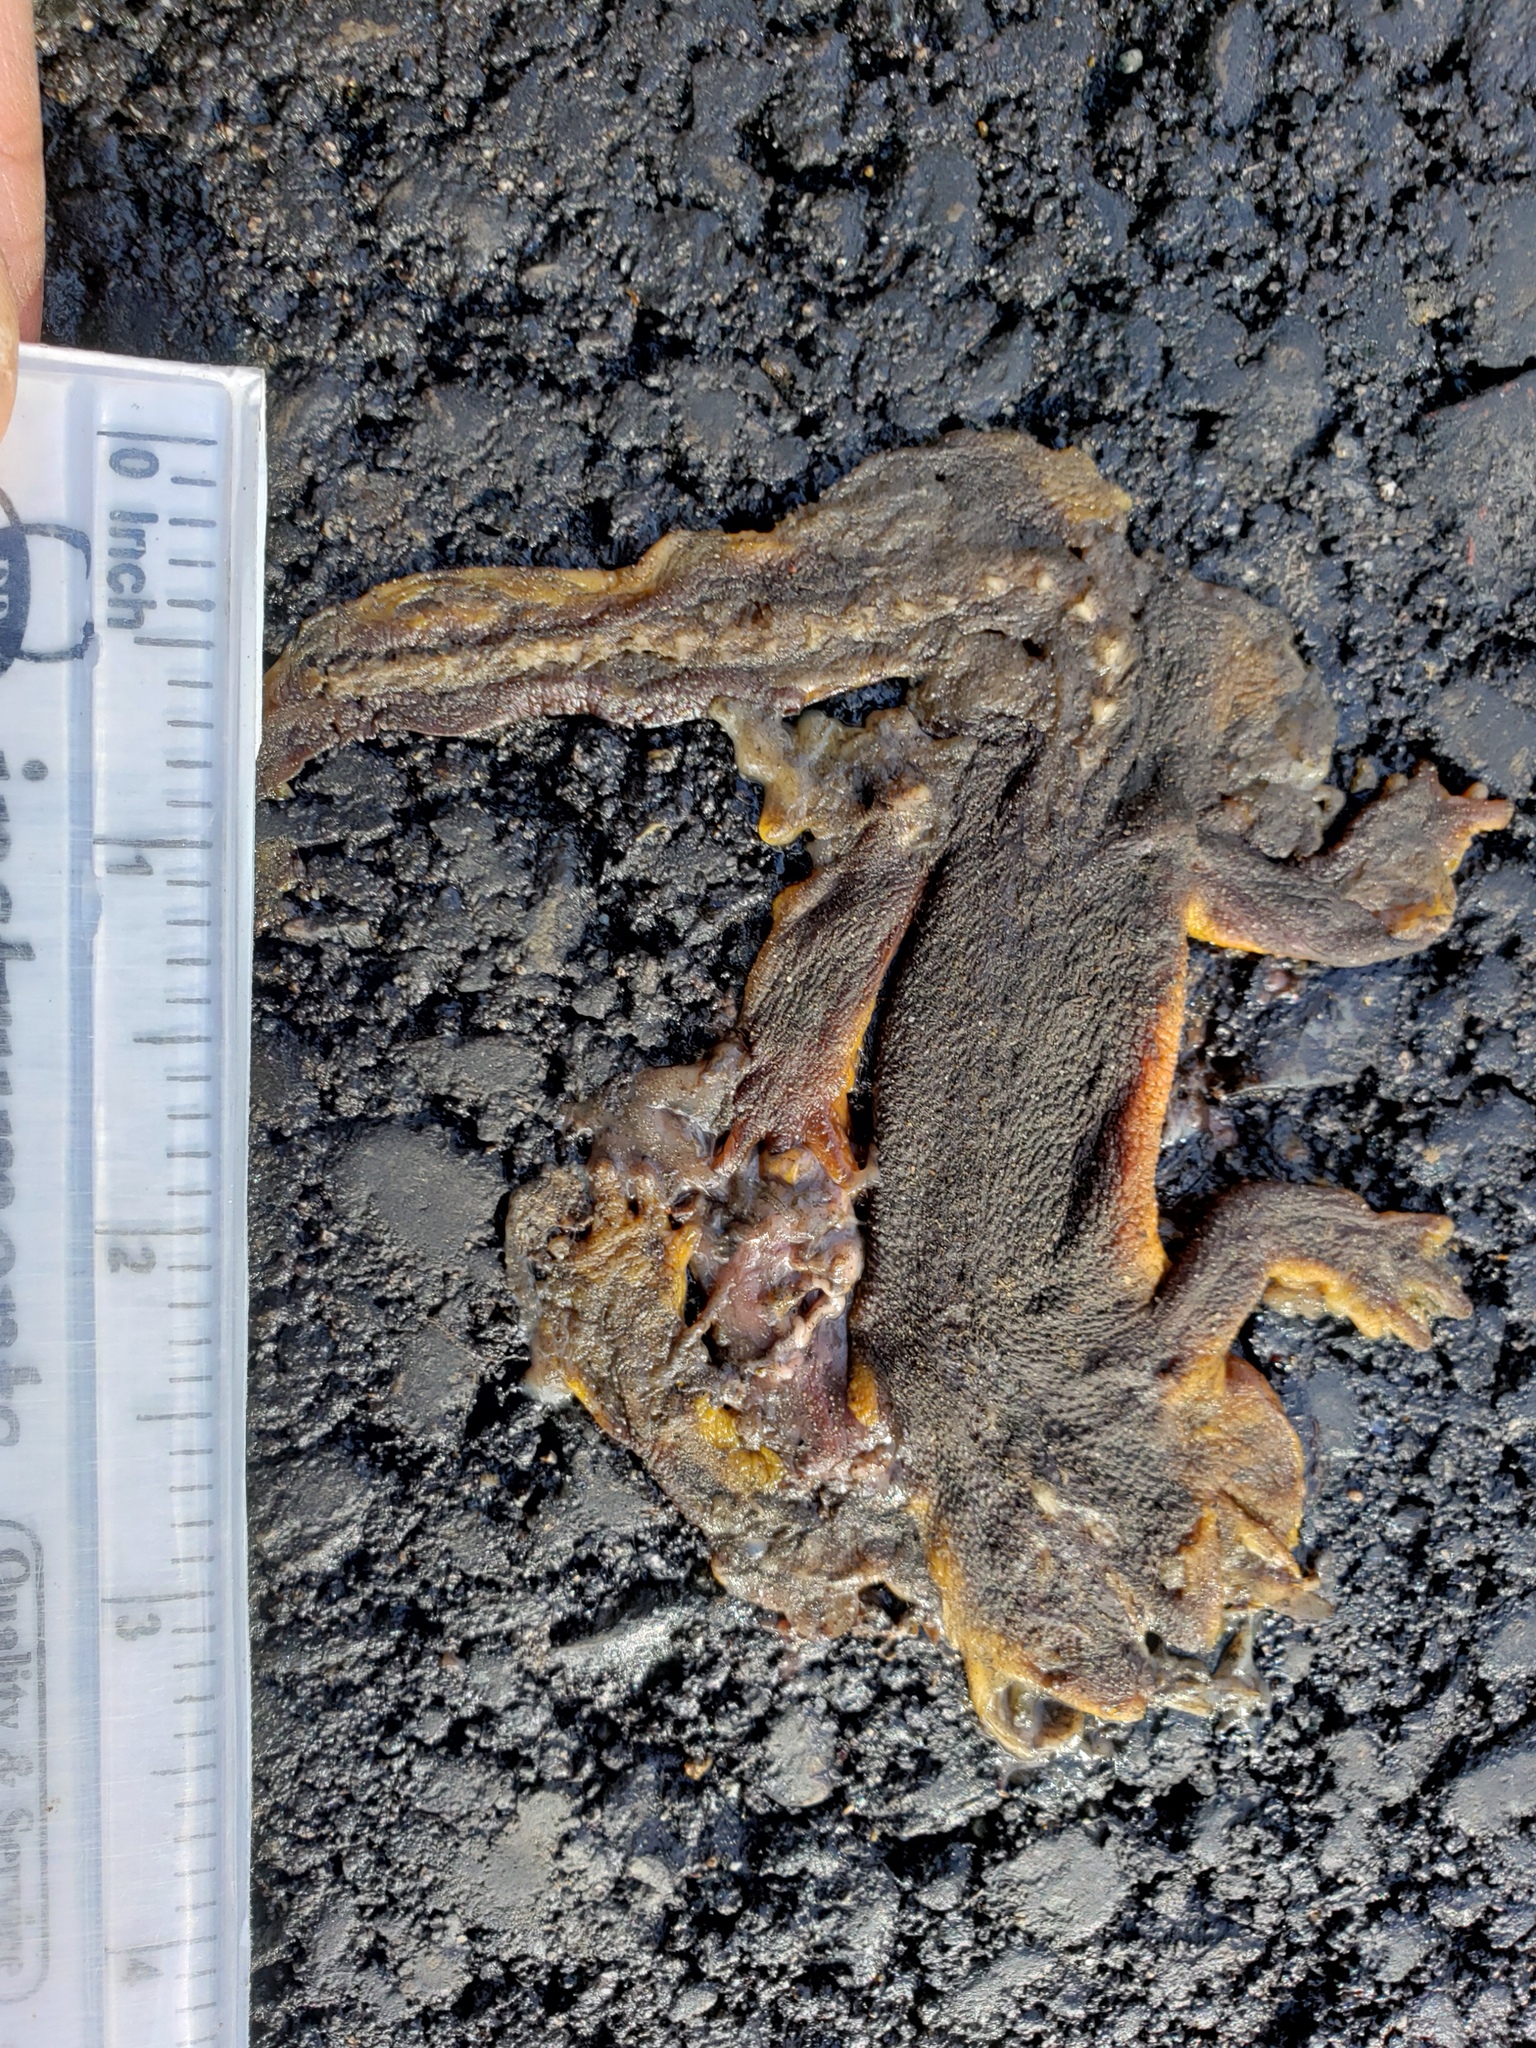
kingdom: Animalia
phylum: Chordata
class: Amphibia
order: Caudata
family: Salamandridae
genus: Taricha
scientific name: Taricha
